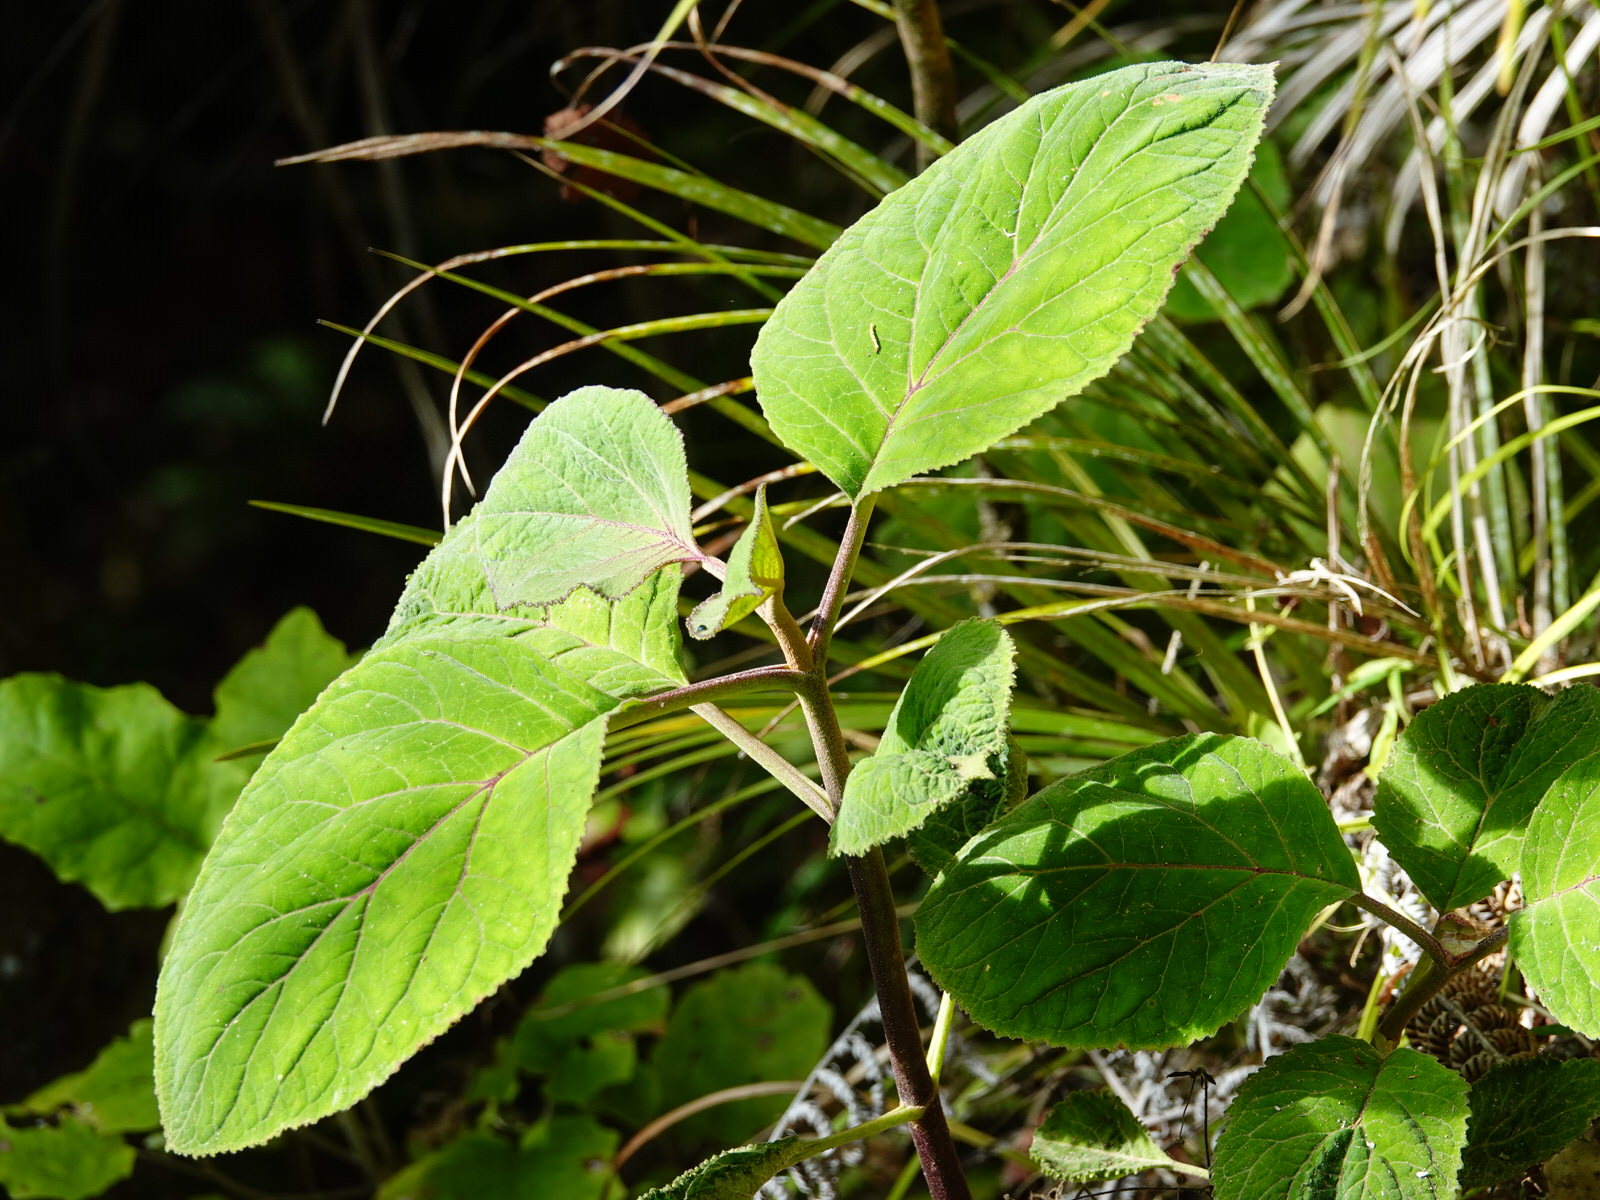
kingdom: Plantae
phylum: Tracheophyta
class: Magnoliopsida
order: Asterales
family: Asteraceae
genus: Bartlettina
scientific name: Bartlettina sordida
